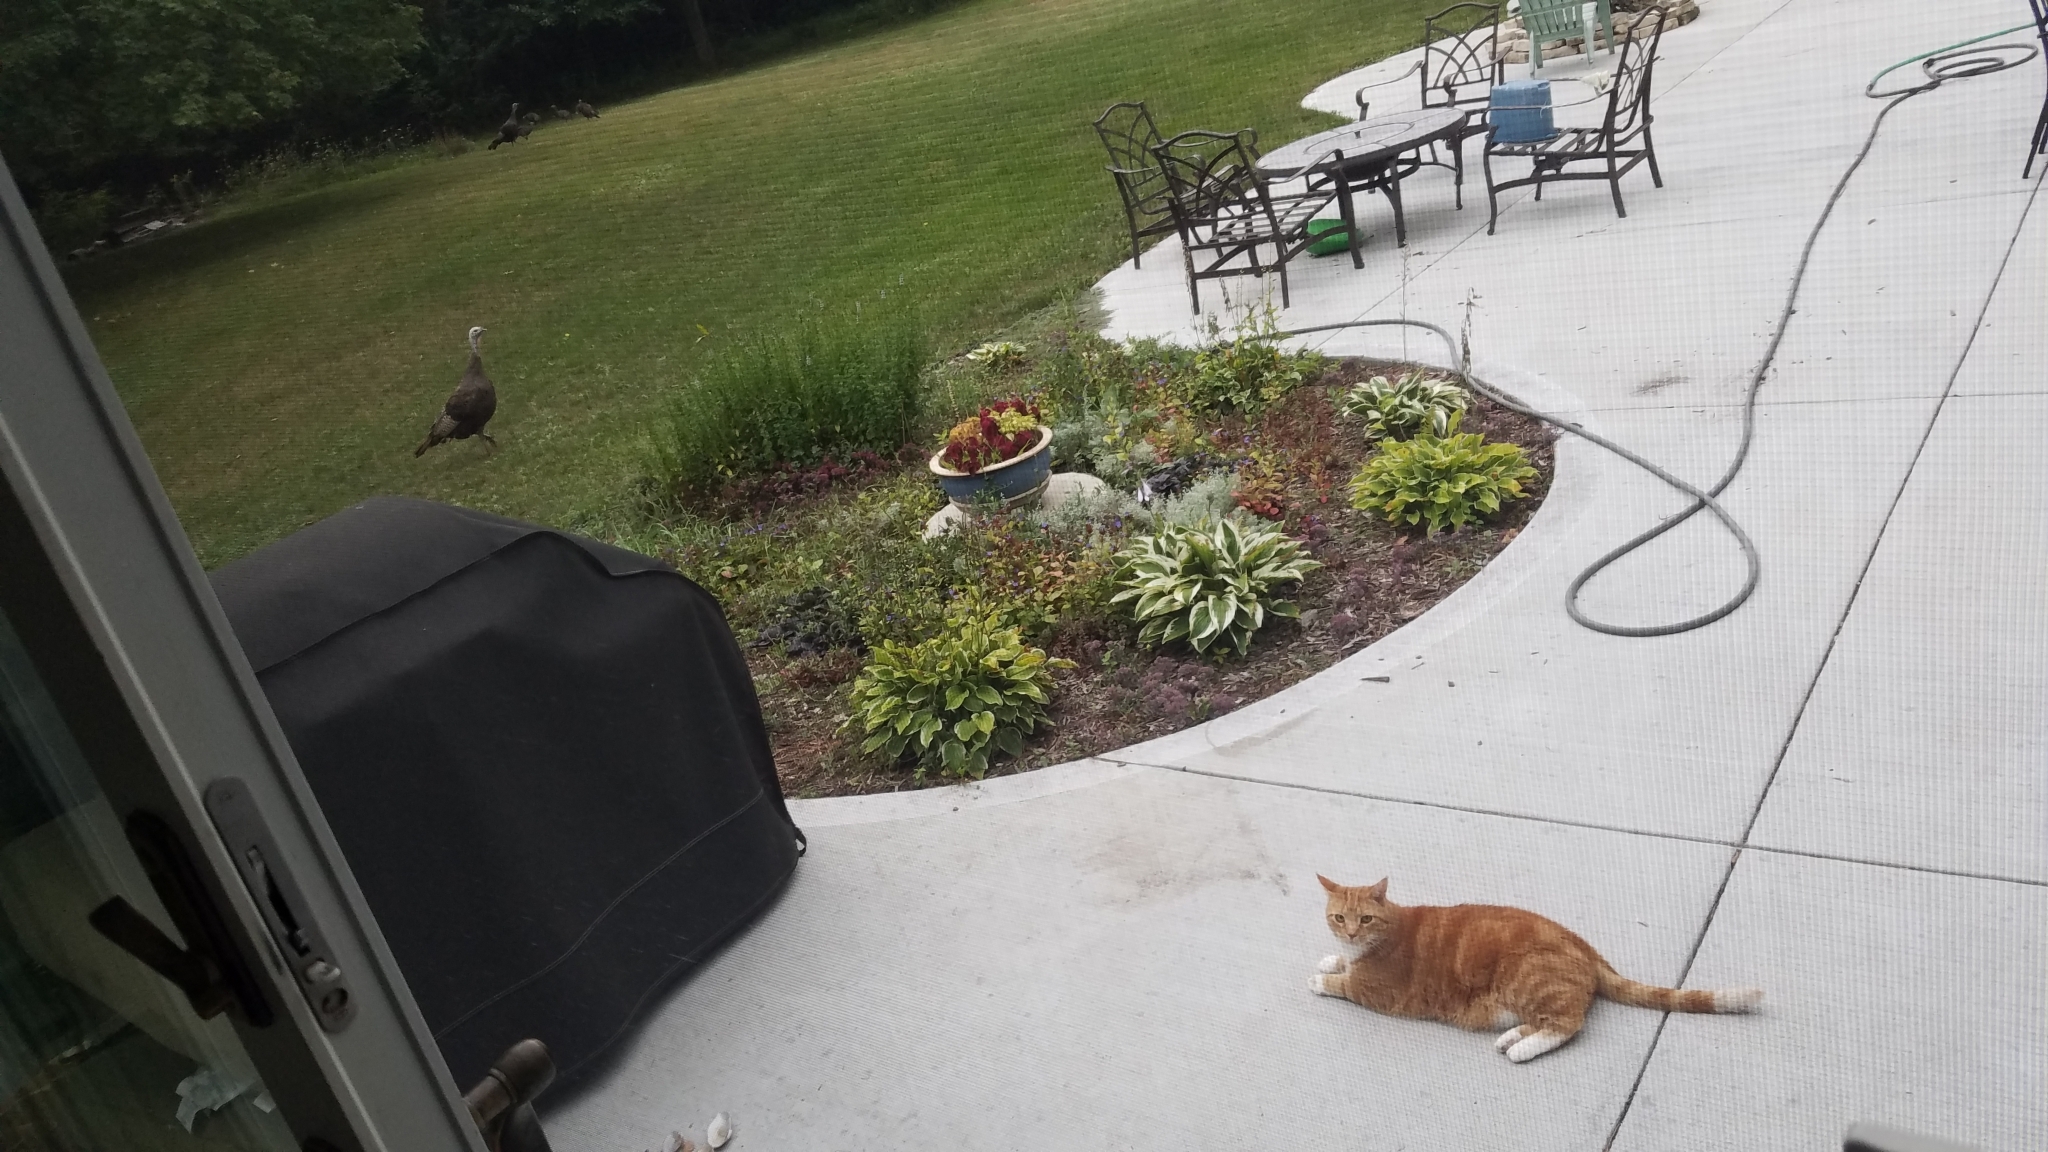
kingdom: Animalia
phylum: Chordata
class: Aves
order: Galliformes
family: Phasianidae
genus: Meleagris
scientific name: Meleagris gallopavo
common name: Wild turkey
